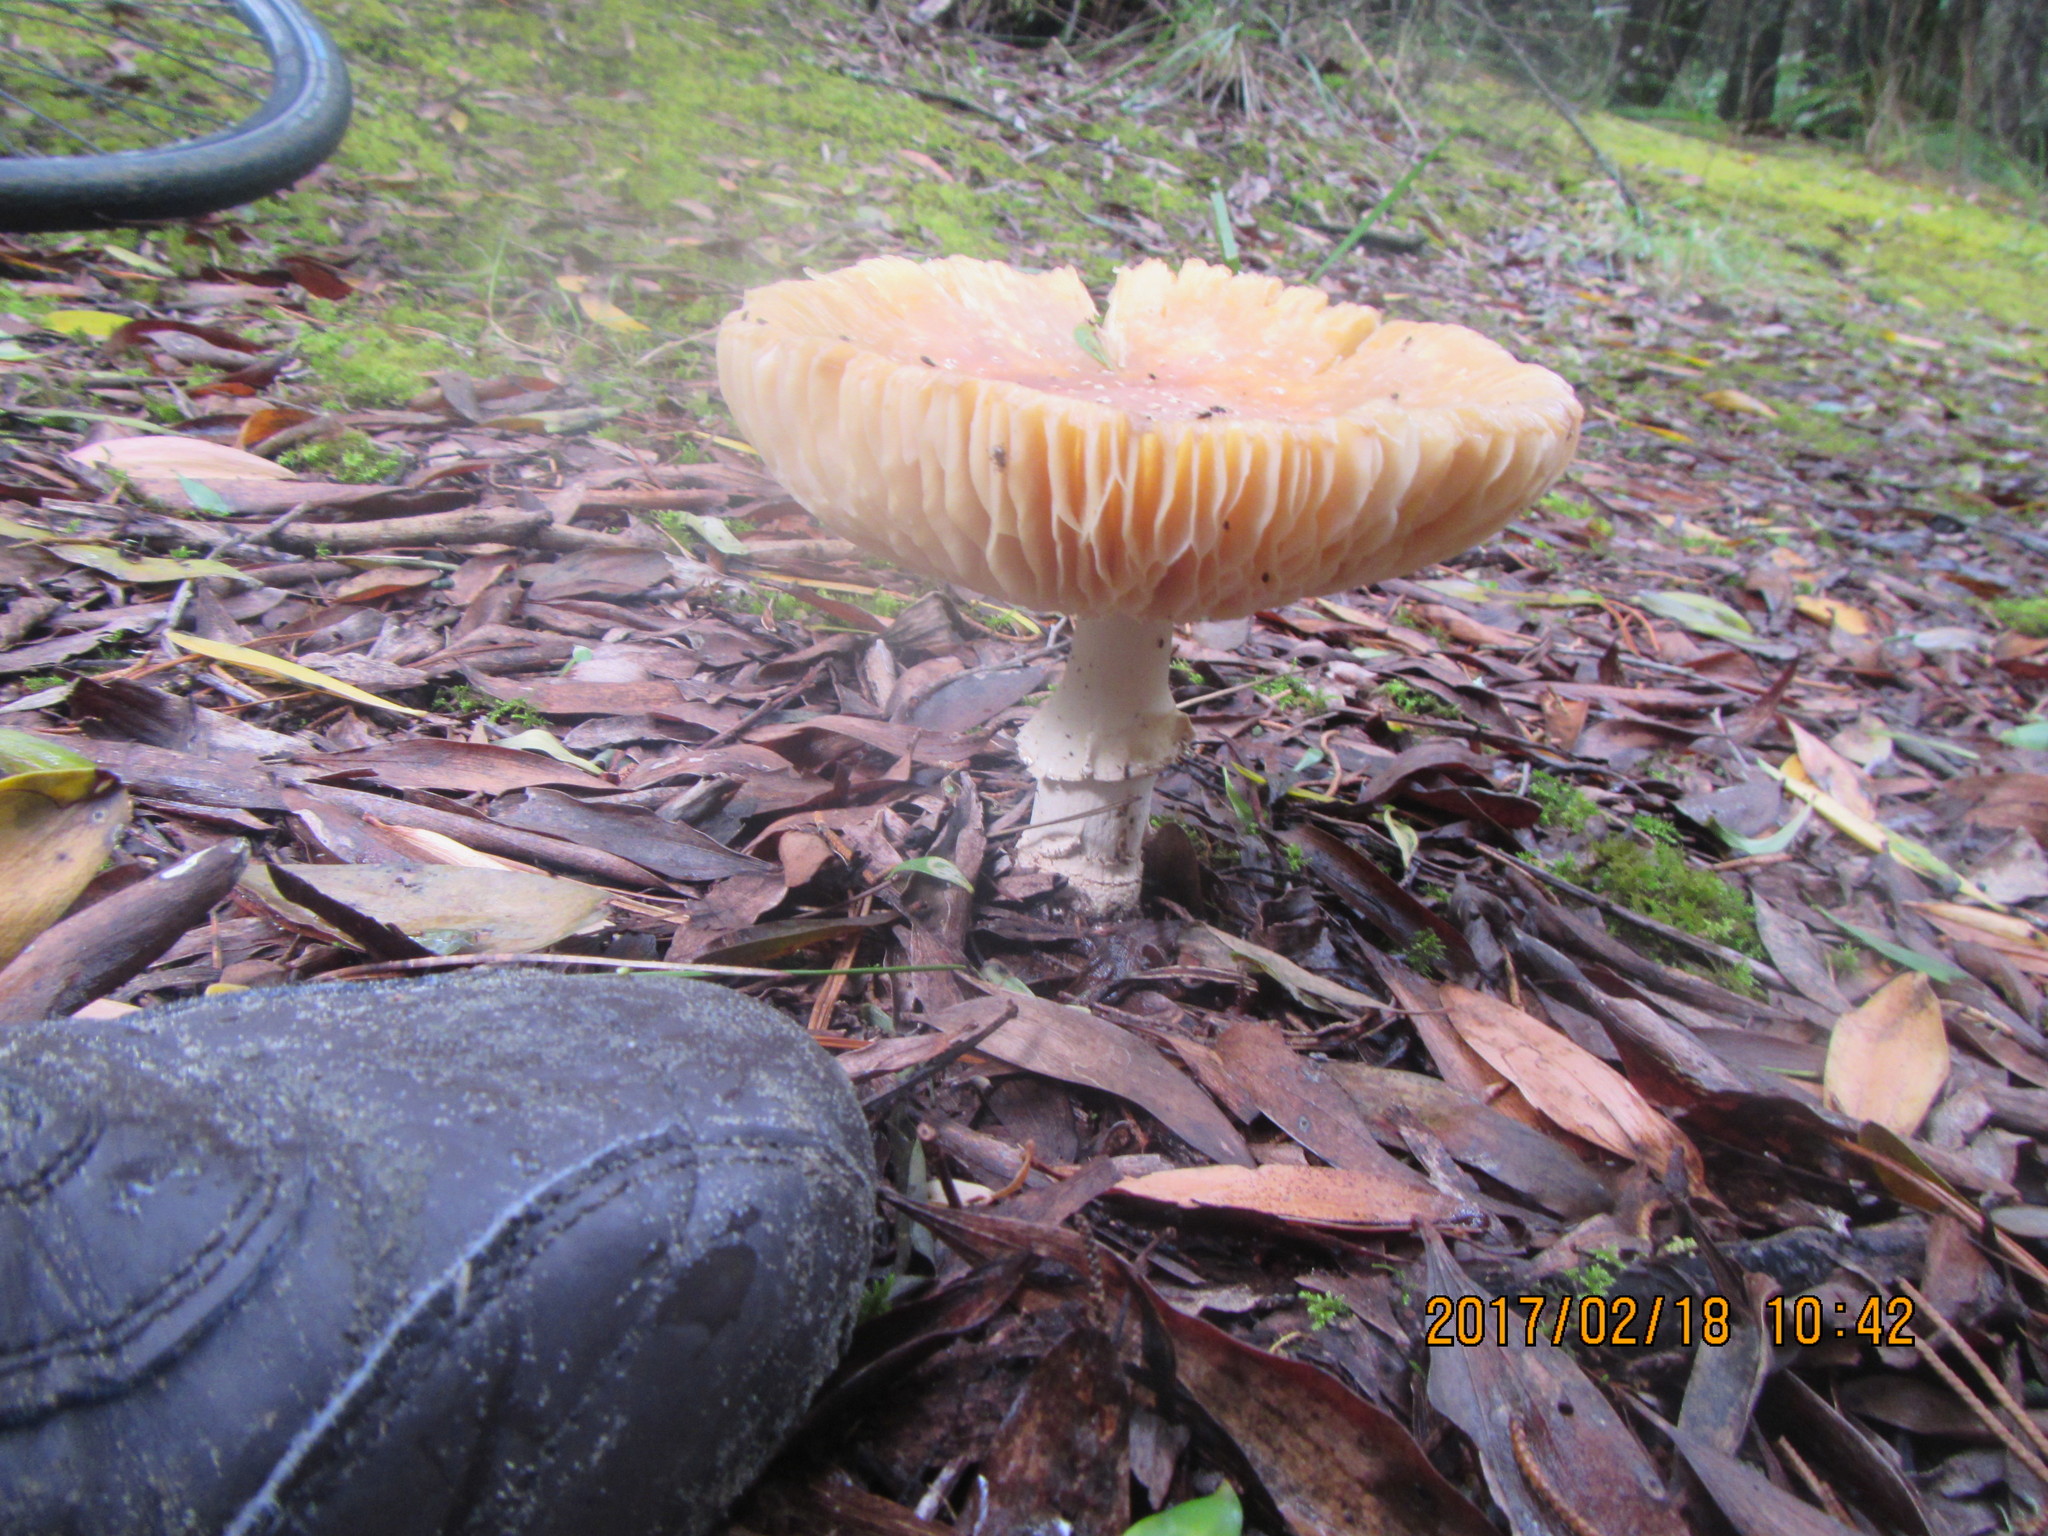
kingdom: Fungi
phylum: Basidiomycota
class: Agaricomycetes
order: Agaricales
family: Amanitaceae
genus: Amanita
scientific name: Amanita muscaria
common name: Fly agaric
